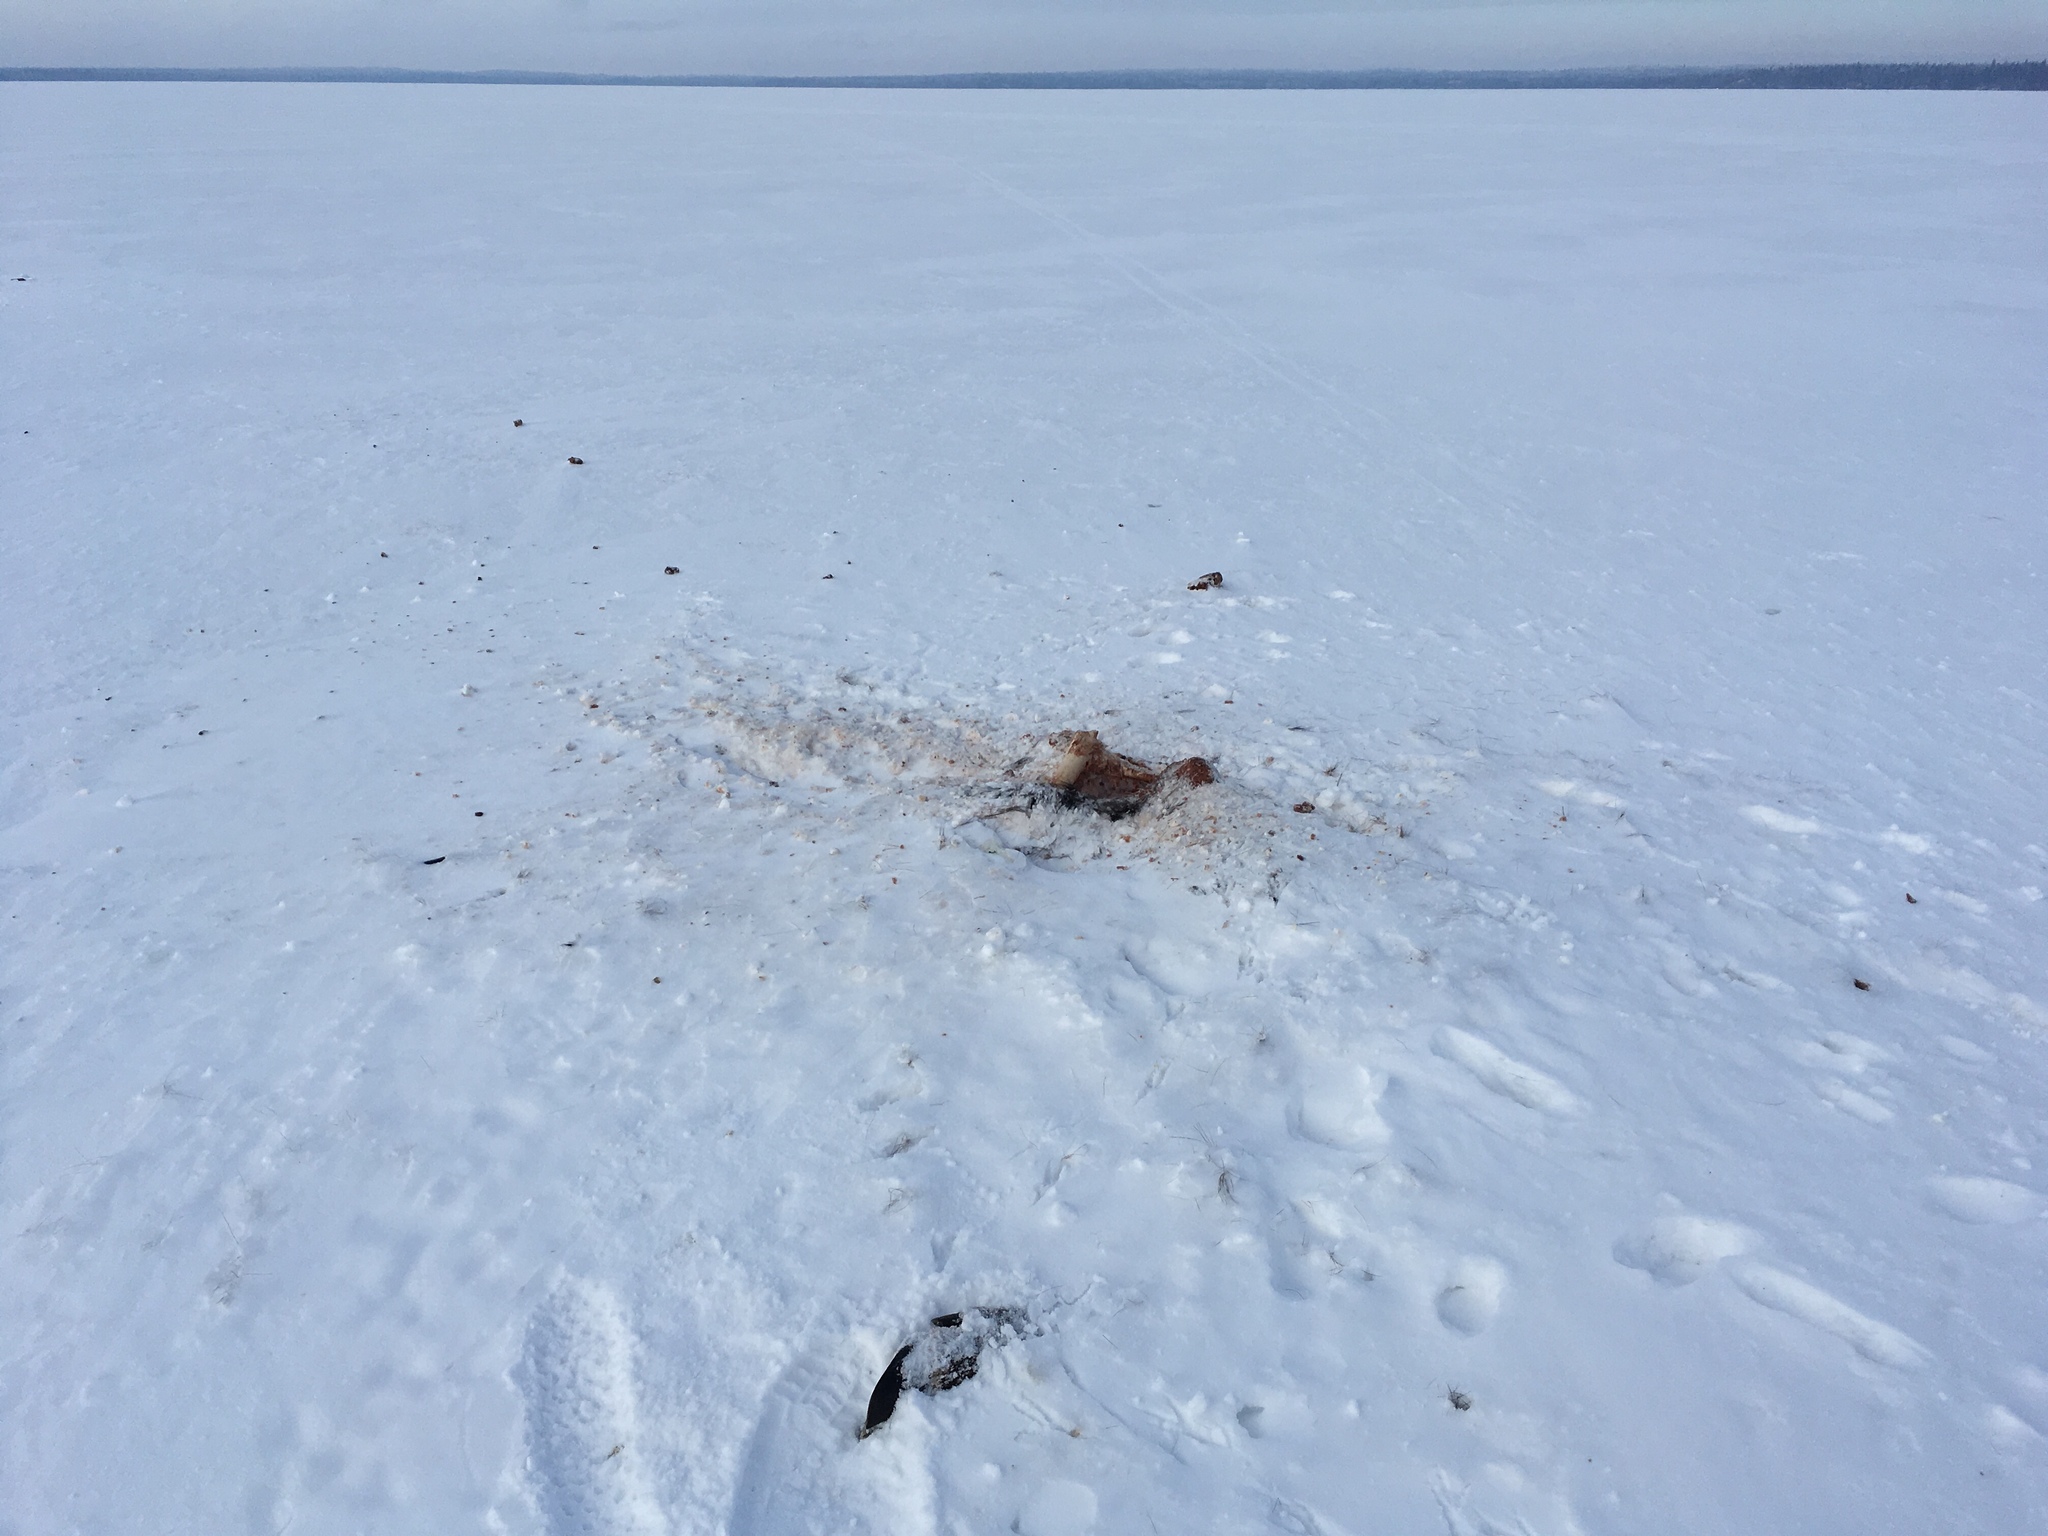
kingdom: Animalia
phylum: Chordata
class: Mammalia
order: Artiodactyla
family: Cervidae
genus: Alces
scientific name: Alces alces
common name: Moose
